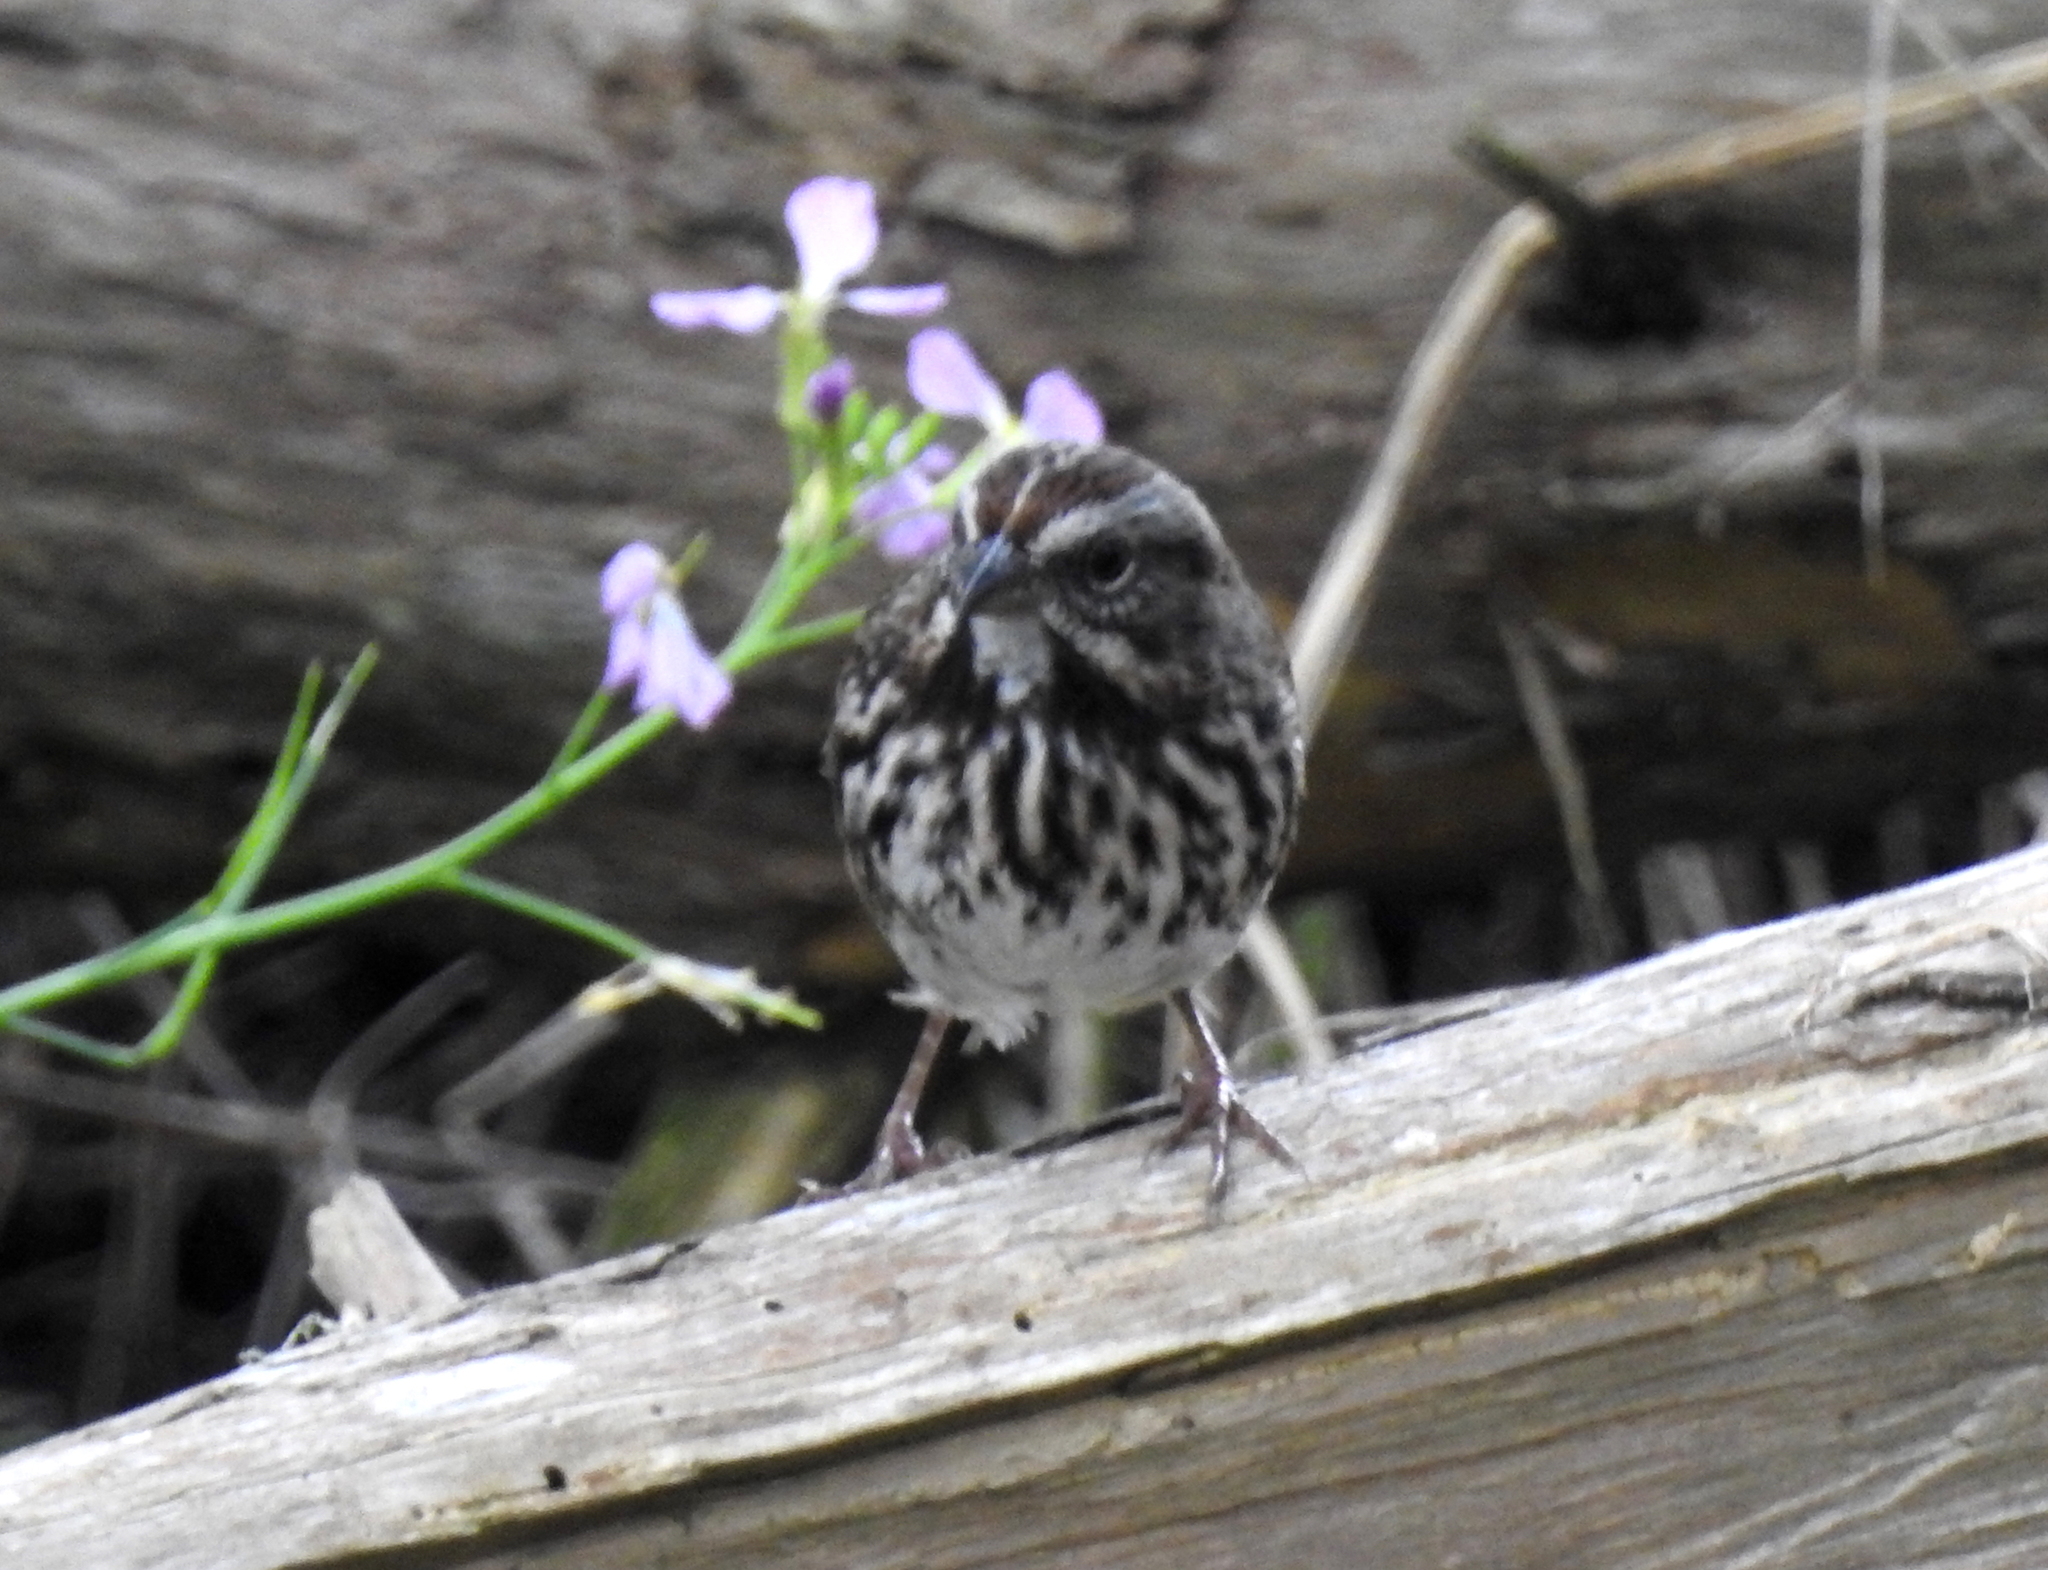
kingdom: Animalia
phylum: Chordata
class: Aves
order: Passeriformes
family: Passerellidae
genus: Melospiza
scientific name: Melospiza melodia
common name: Song sparrow
